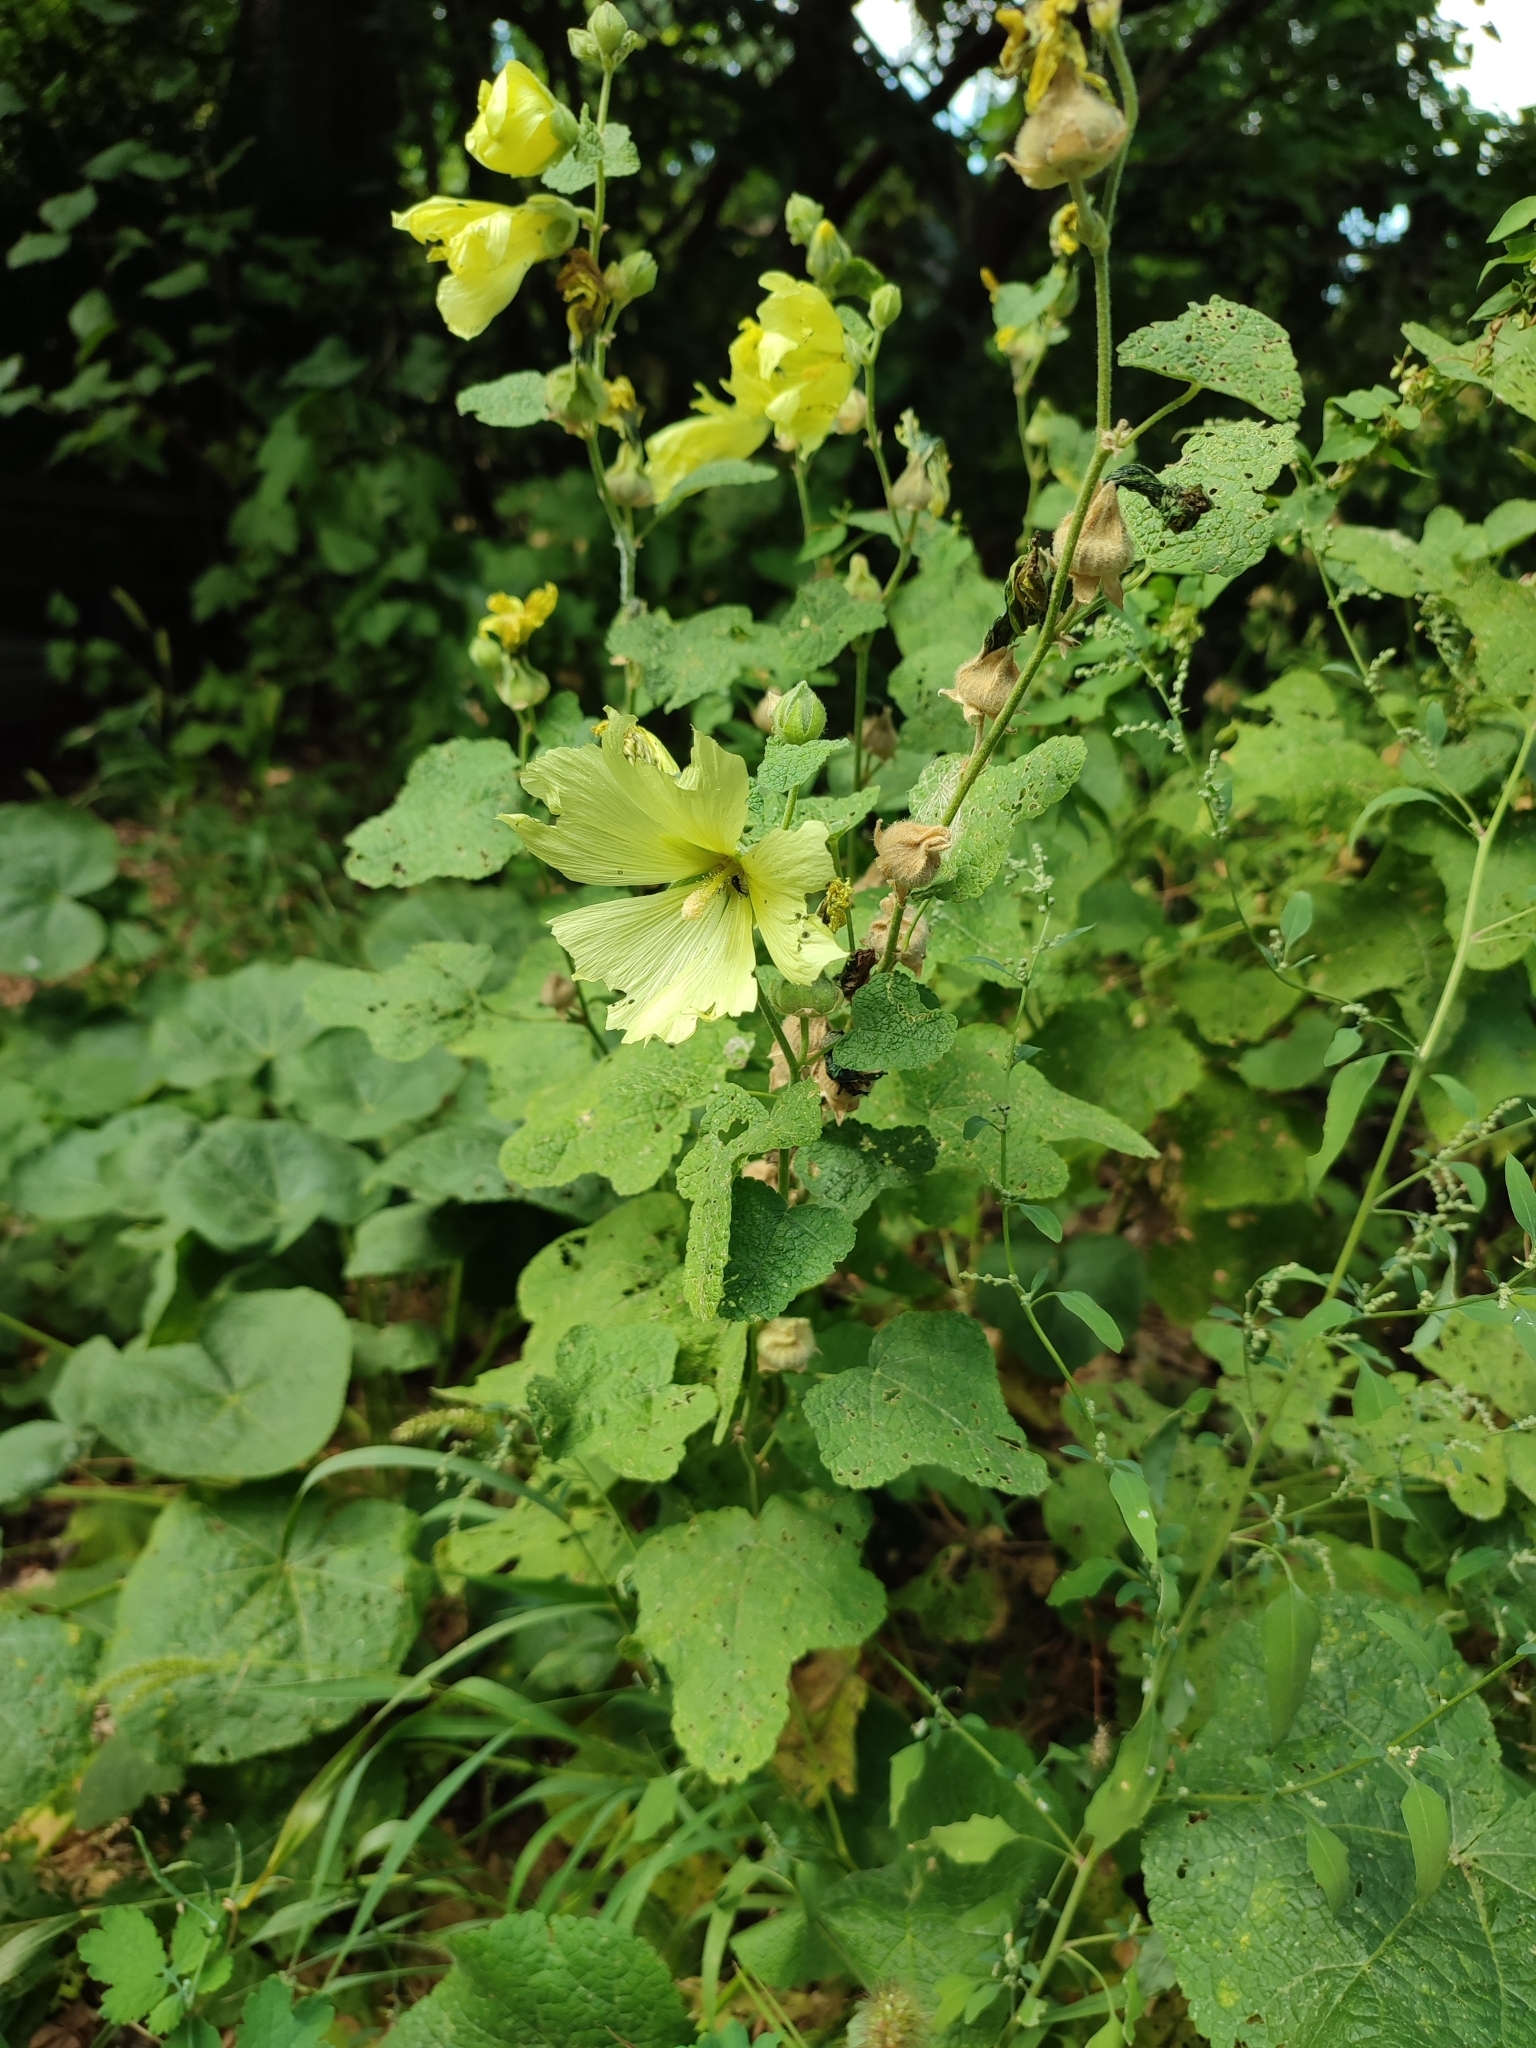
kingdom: Plantae
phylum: Tracheophyta
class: Magnoliopsida
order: Malvales
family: Malvaceae
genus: Alcea
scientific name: Alcea rugosa
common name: Russian hollyhock
